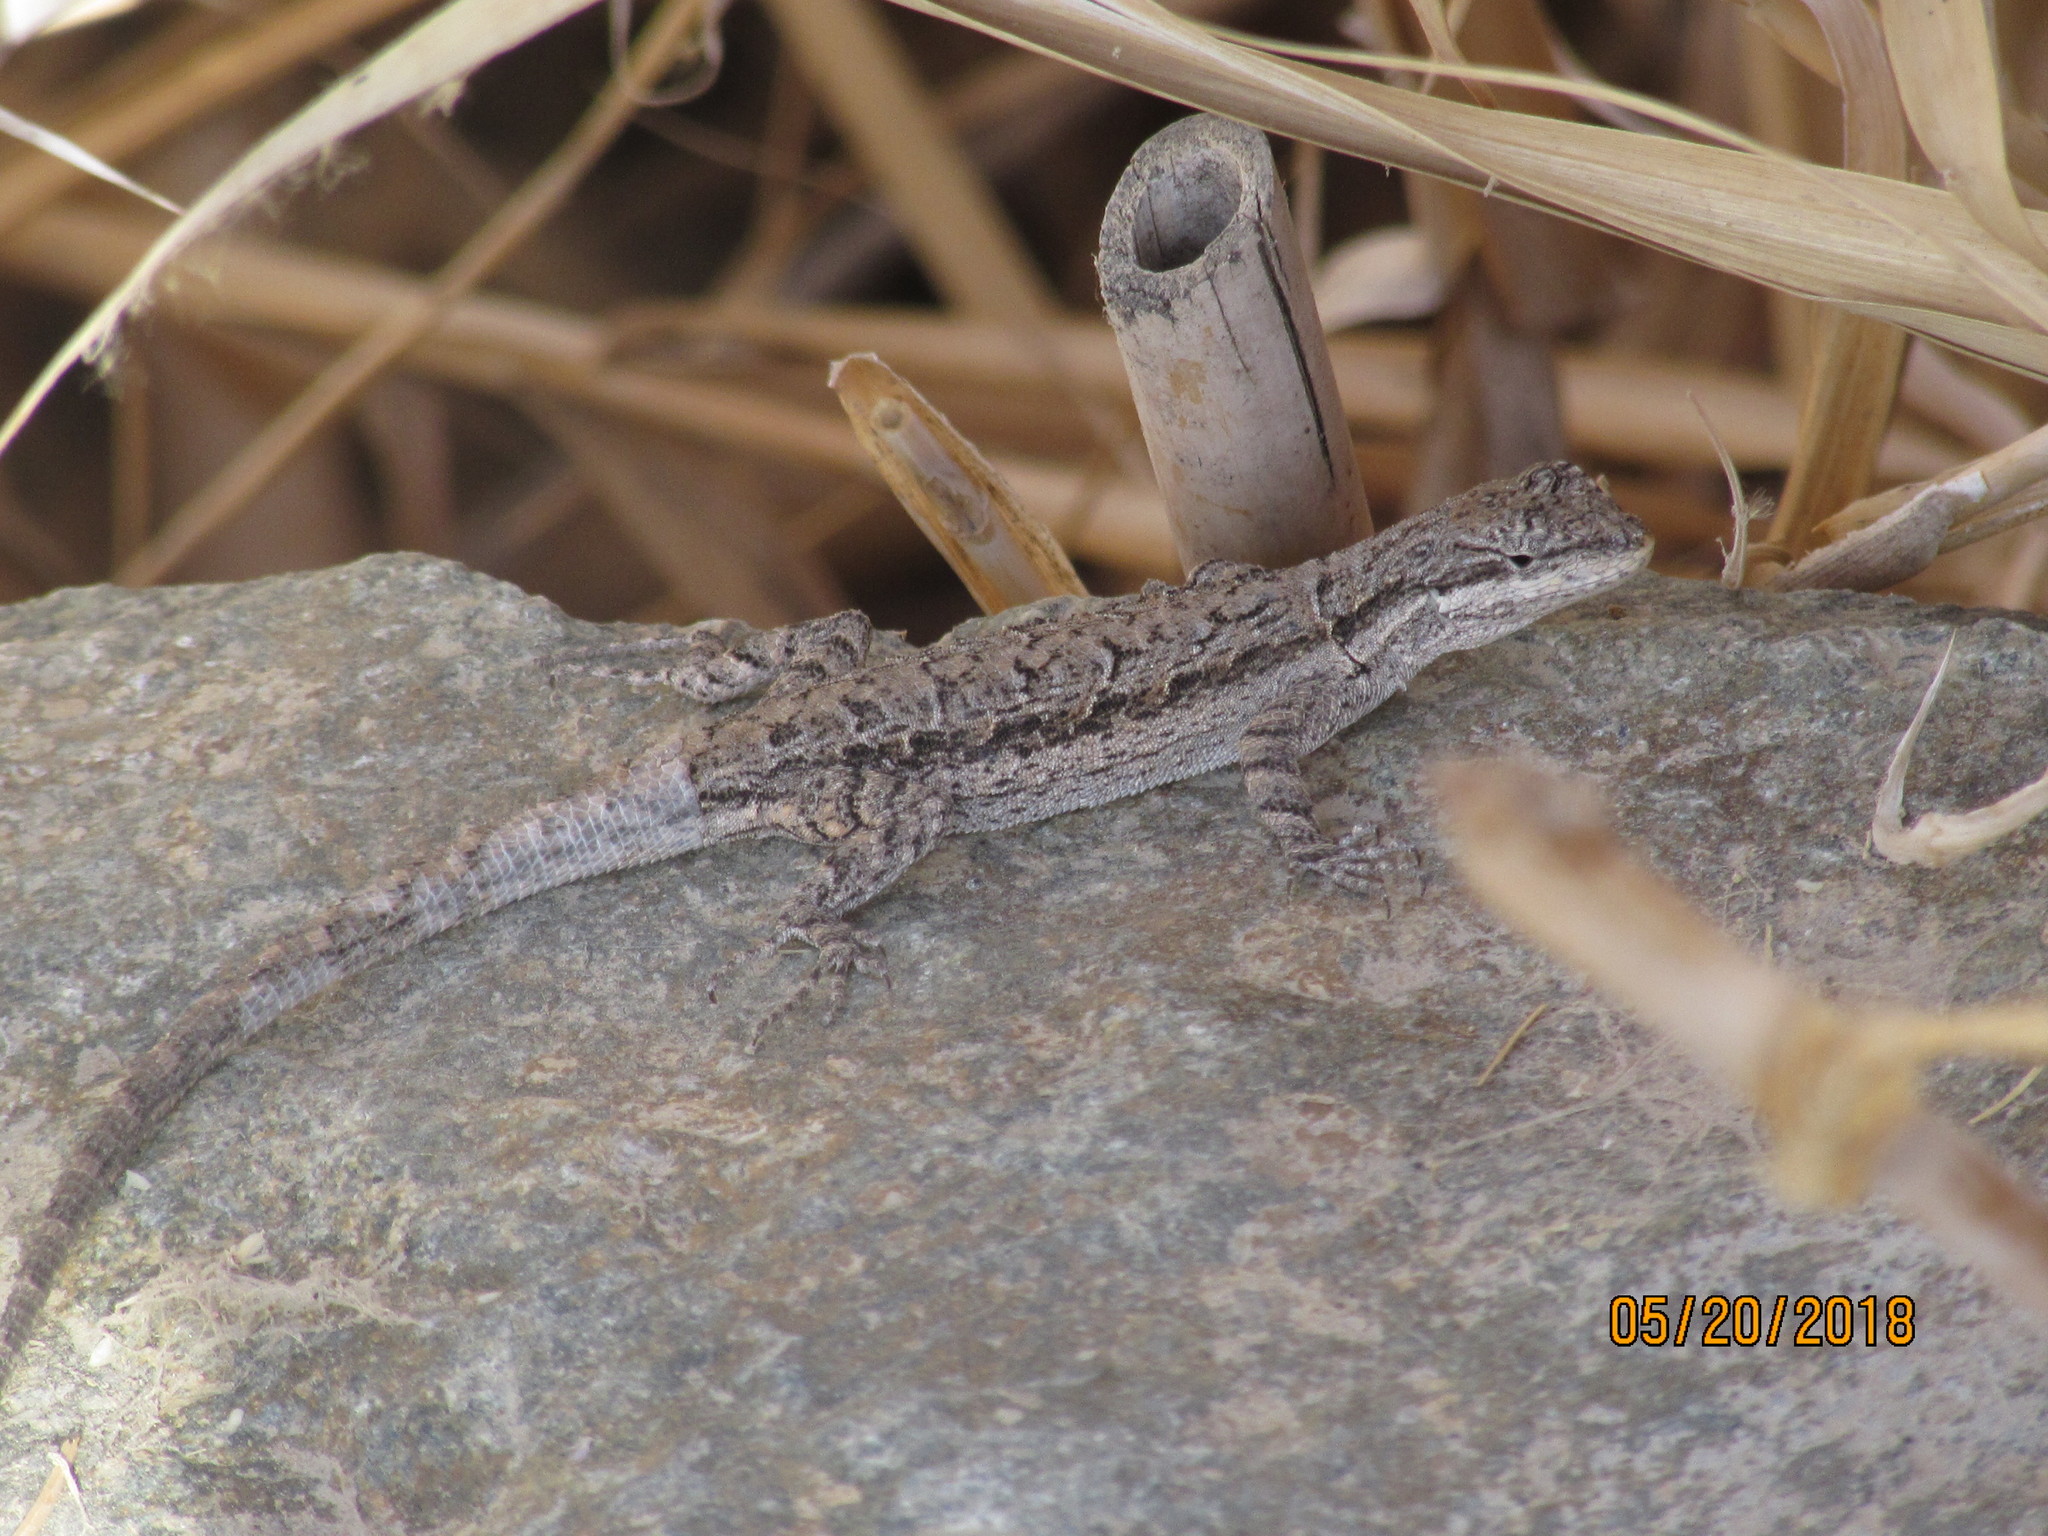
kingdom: Animalia
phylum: Chordata
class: Squamata
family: Phrynosomatidae
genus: Urosaurus
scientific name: Urosaurus ornatus
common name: Ornate tree lizard
